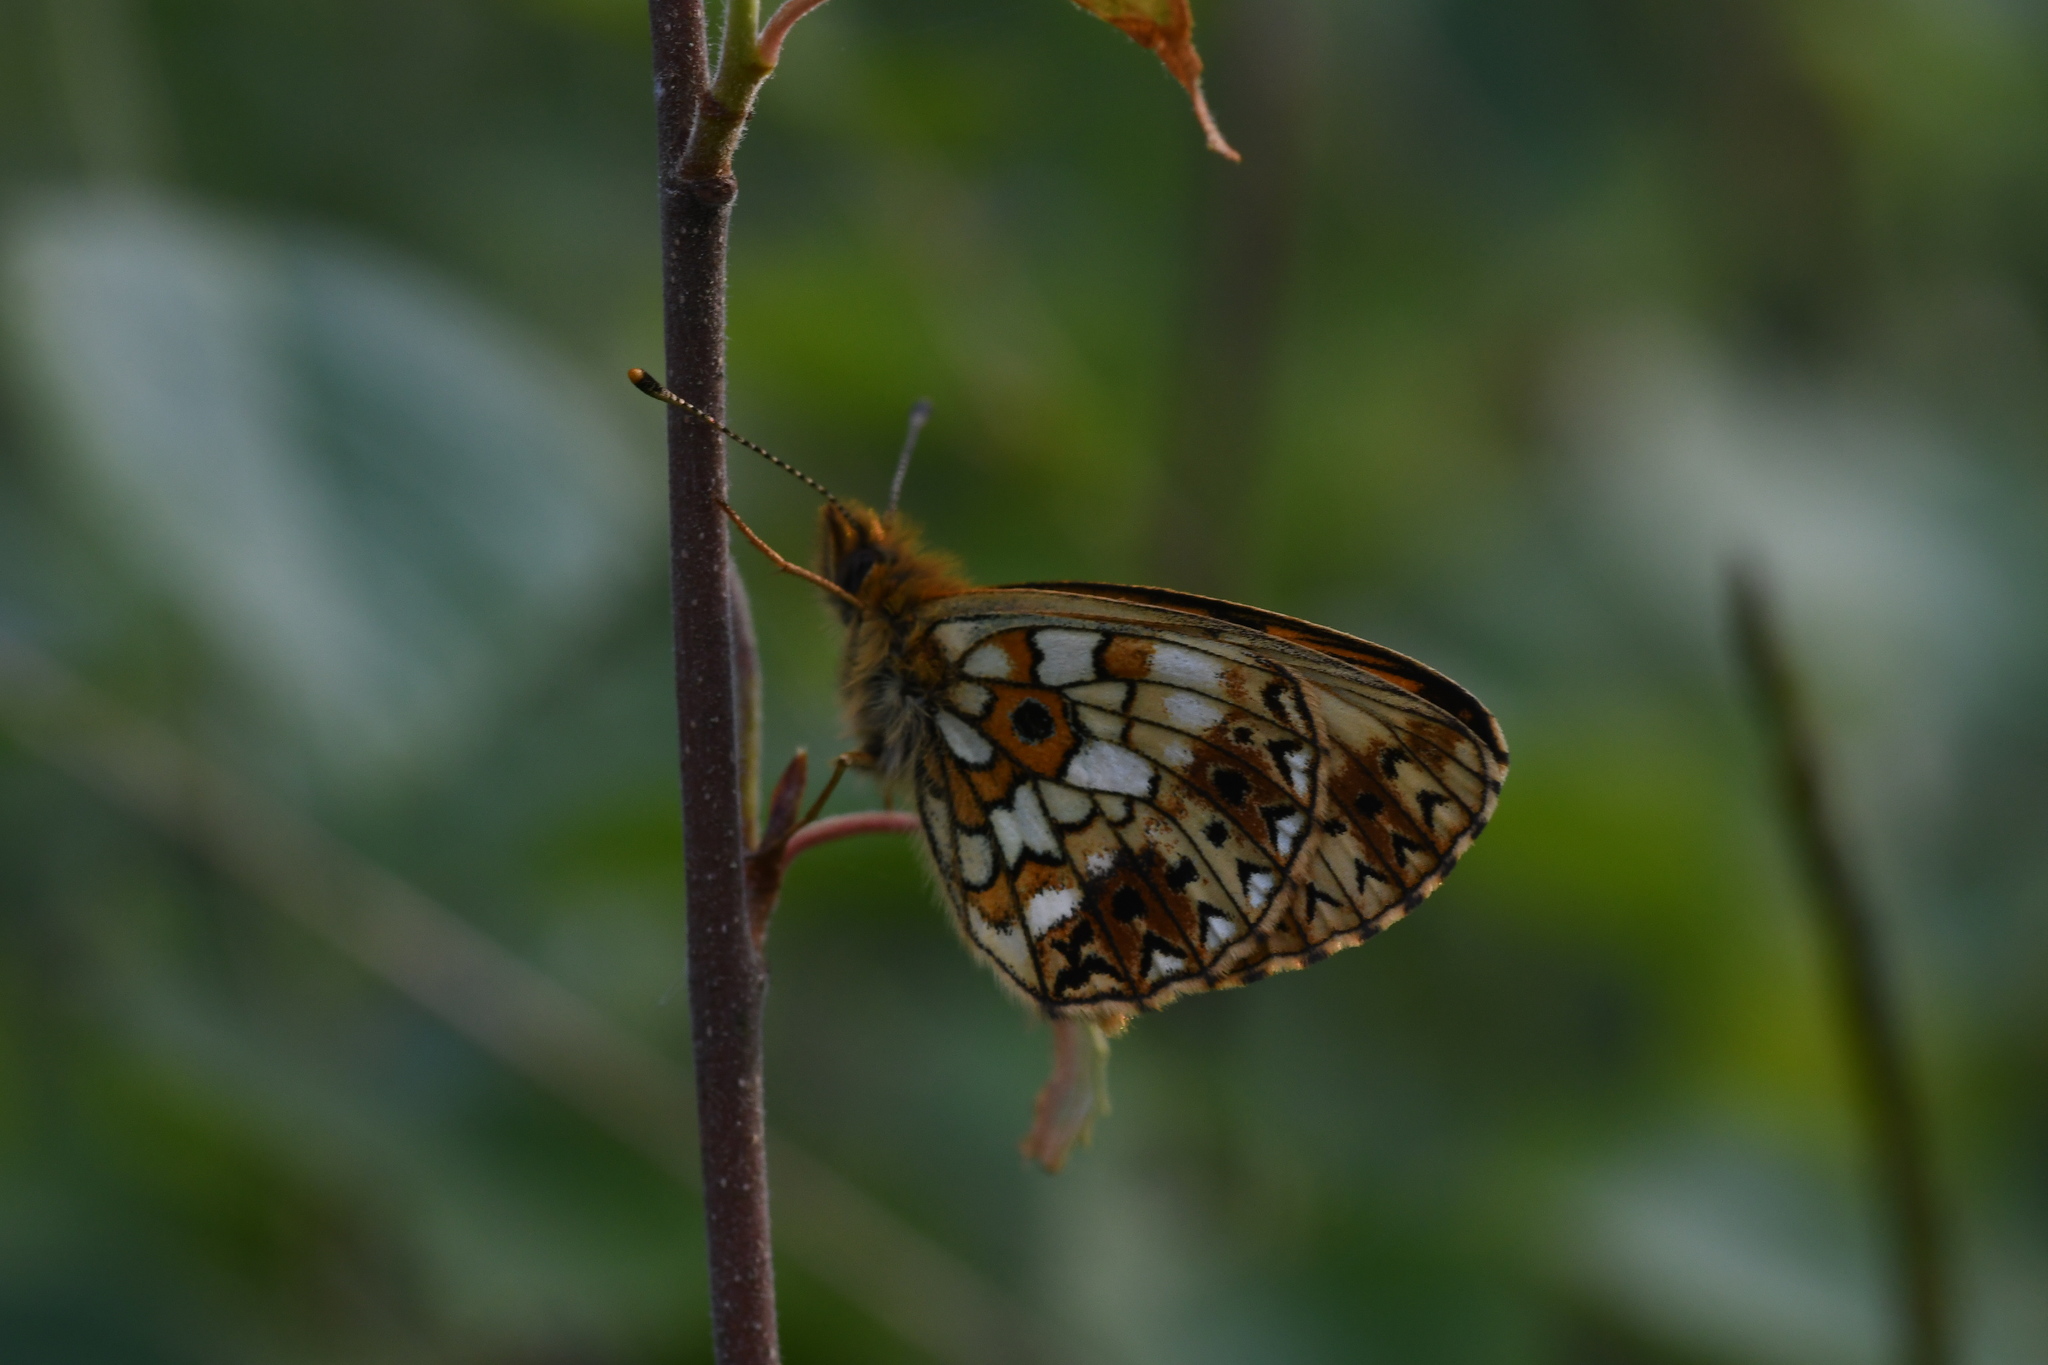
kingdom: Animalia
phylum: Arthropoda
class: Insecta
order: Lepidoptera
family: Nymphalidae
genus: Boloria
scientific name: Boloria selene
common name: Small pearl-bordered fritillary
